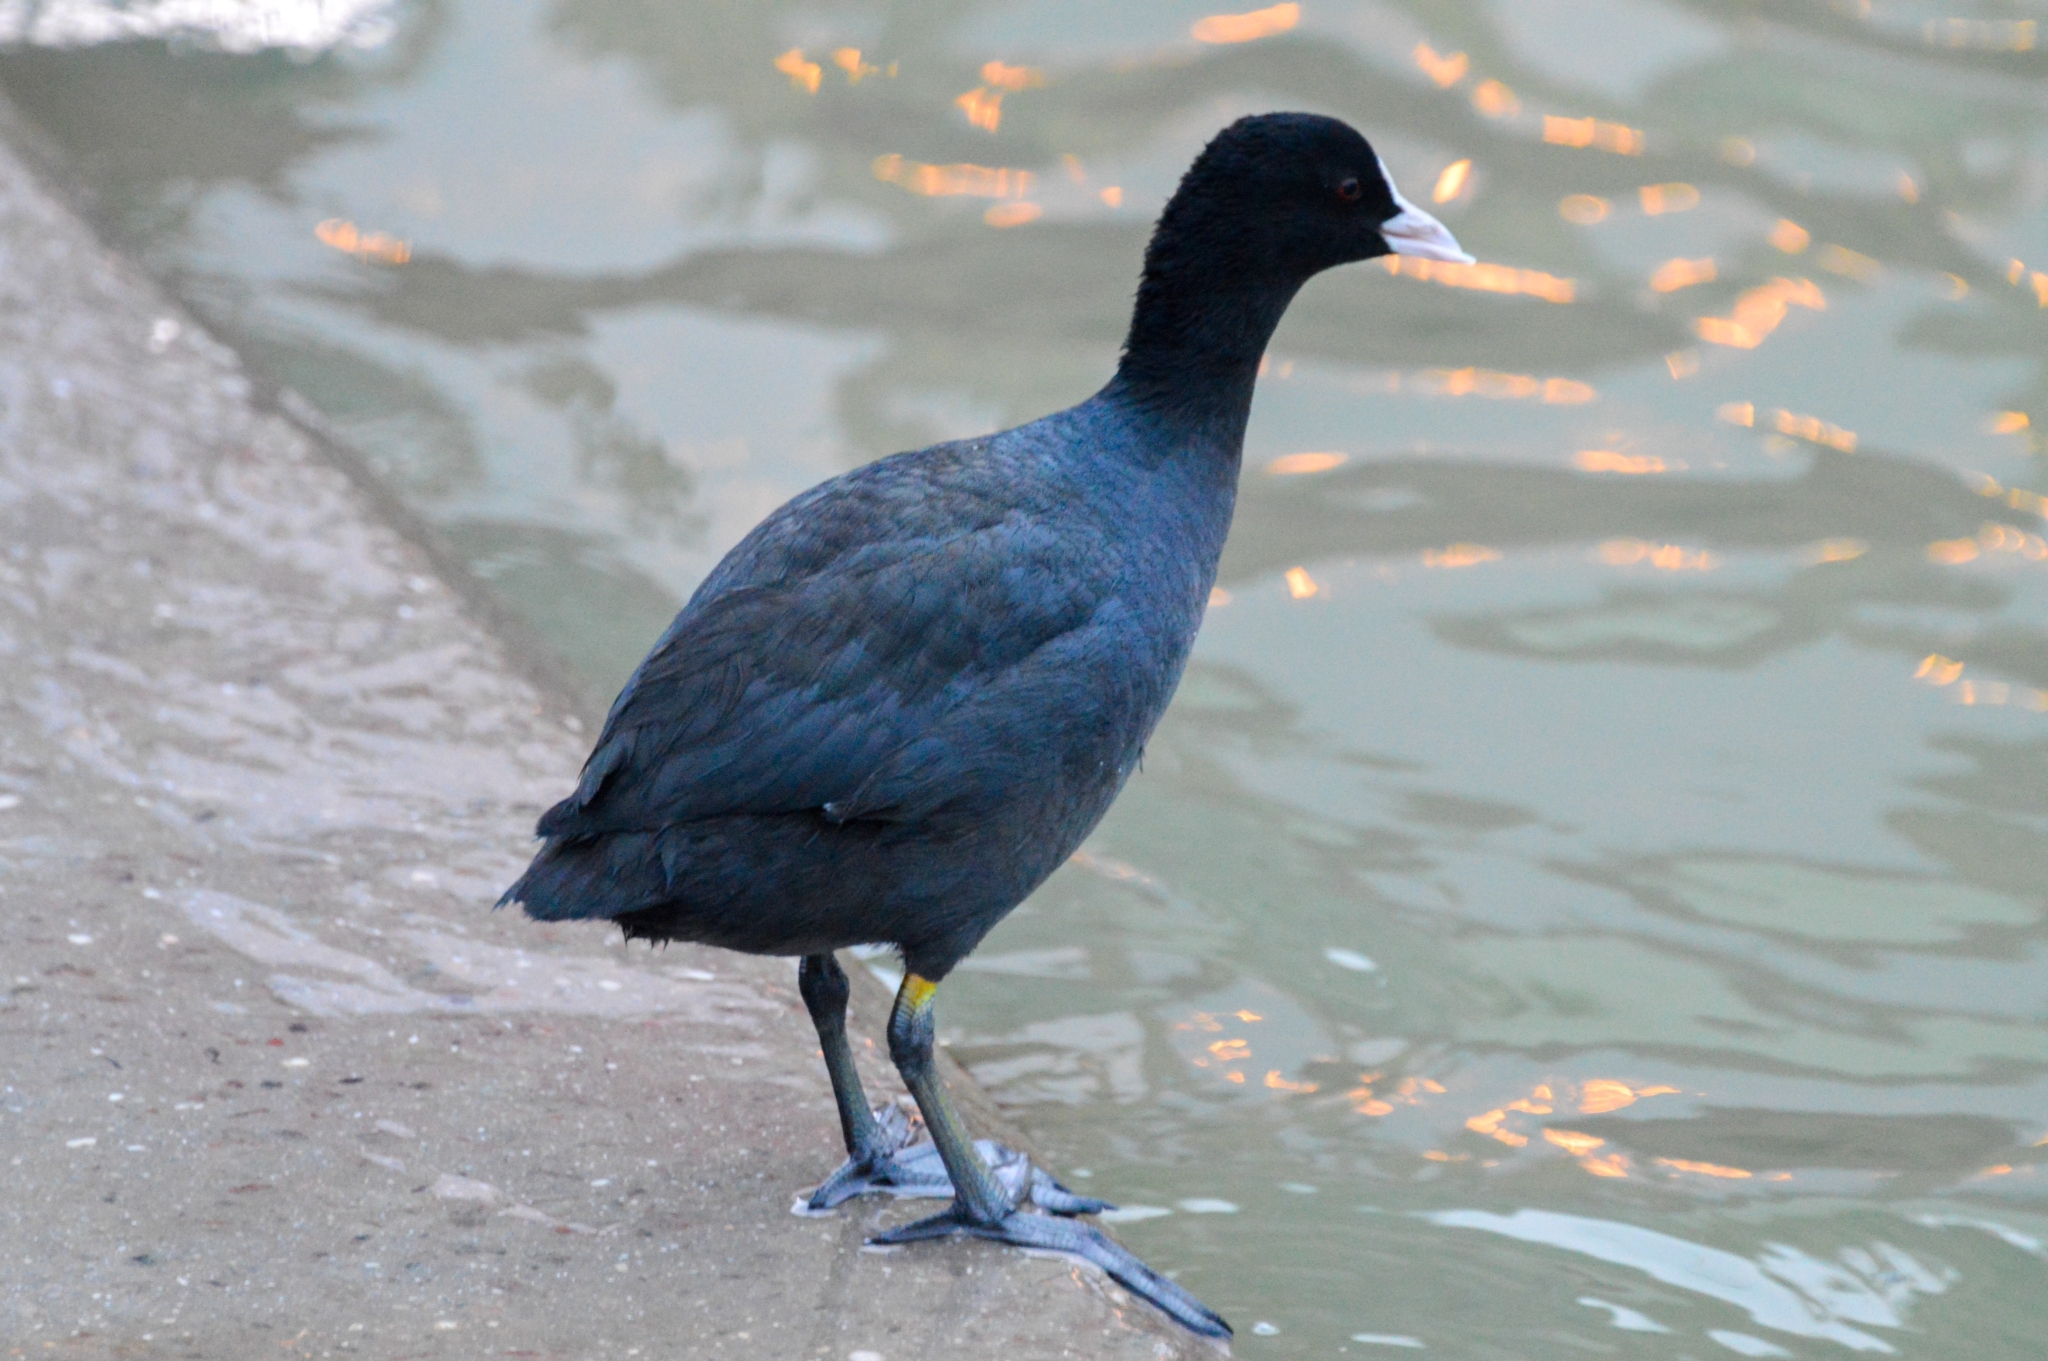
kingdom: Animalia
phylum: Chordata
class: Aves
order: Gruiformes
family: Rallidae
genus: Fulica
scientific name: Fulica atra
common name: Eurasian coot
